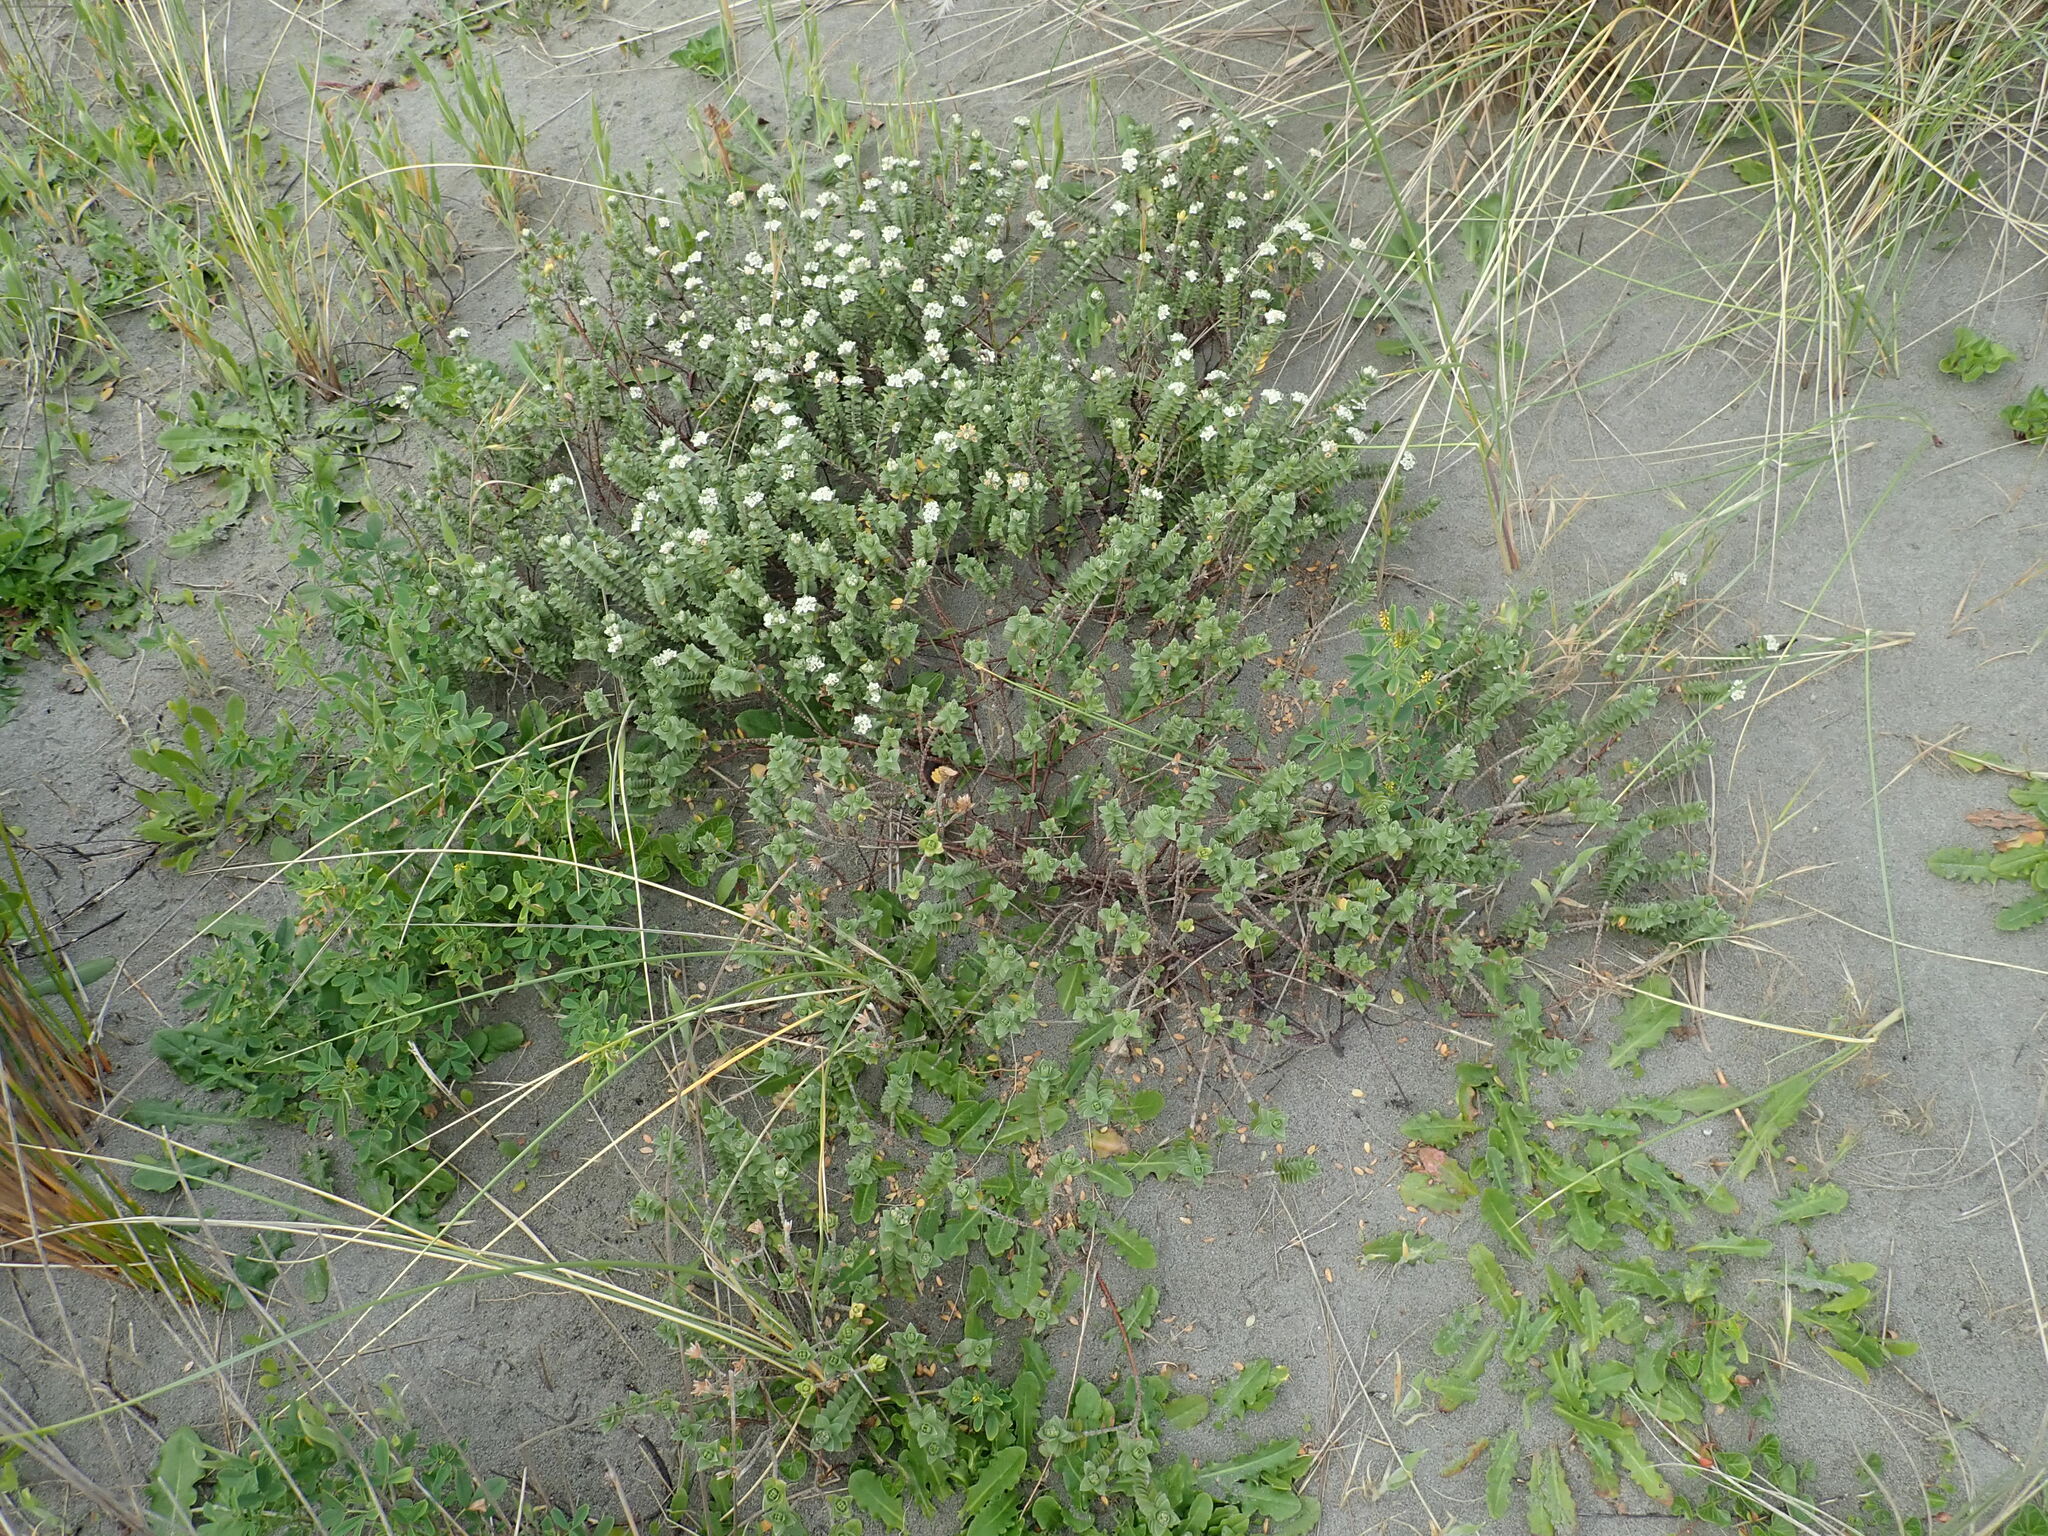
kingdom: Plantae
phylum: Tracheophyta
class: Magnoliopsida
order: Malvales
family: Thymelaeaceae
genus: Pimelea
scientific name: Pimelea villosa
